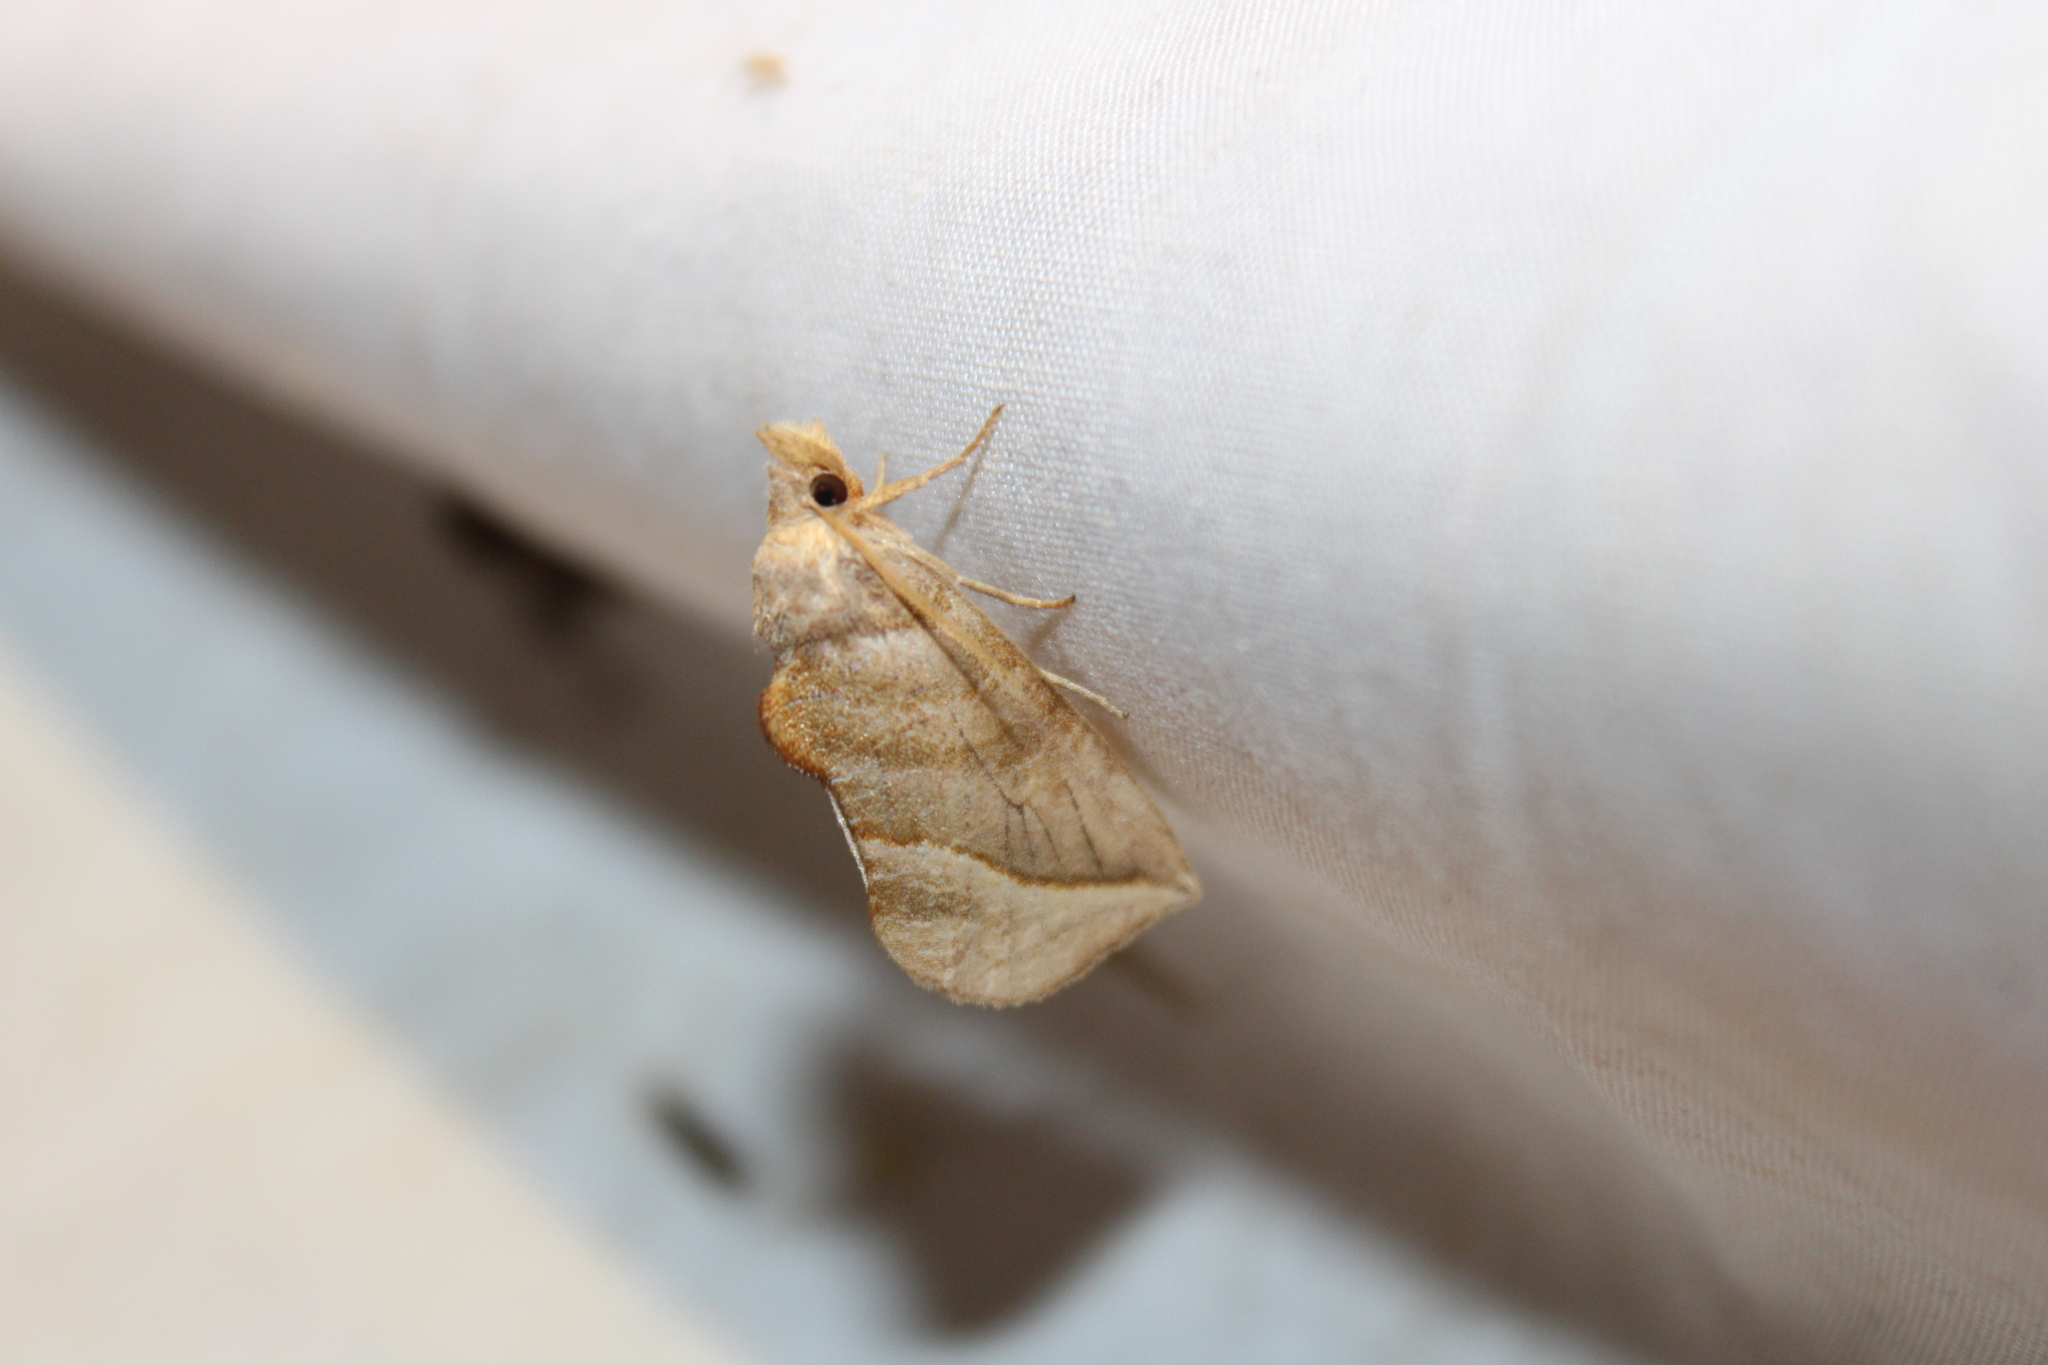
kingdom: Animalia
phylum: Arthropoda
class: Insecta
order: Lepidoptera
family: Erebidae
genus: Calyptra
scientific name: Calyptra canadensis
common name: Canadian owlet
